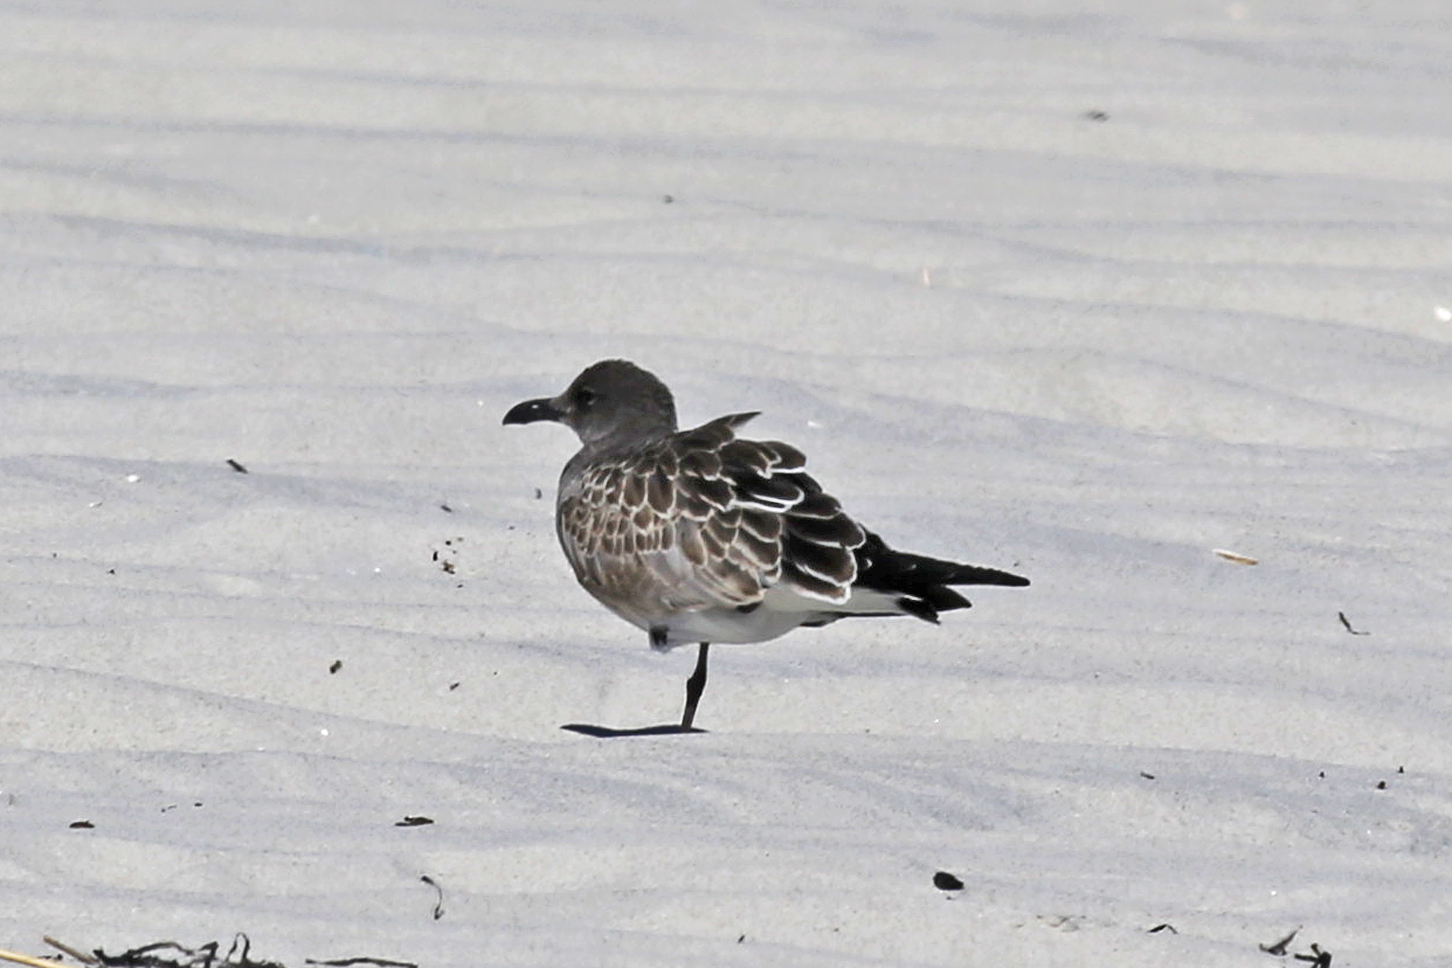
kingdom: Animalia
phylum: Chordata
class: Aves
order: Charadriiformes
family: Laridae
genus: Leucophaeus
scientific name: Leucophaeus atricilla
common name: Laughing gull
